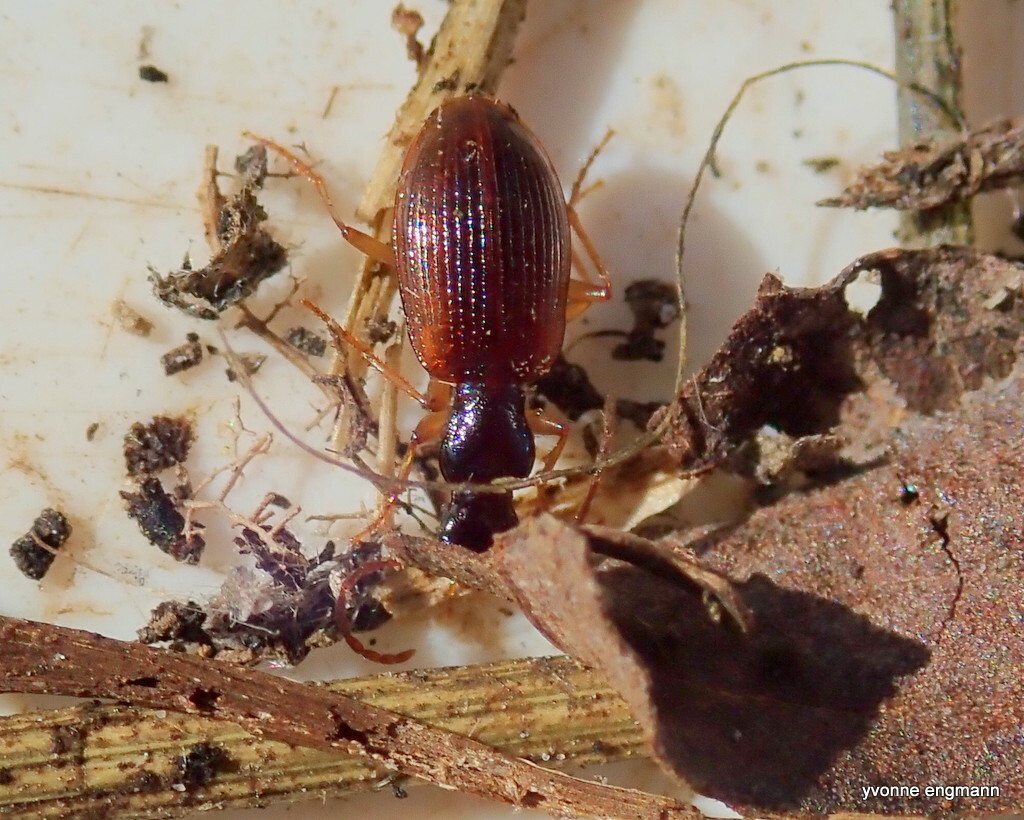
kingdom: Animalia
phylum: Arthropoda
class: Insecta
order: Coleoptera
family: Carabidae
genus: Oxypselaphus
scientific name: Oxypselaphus obscurus
